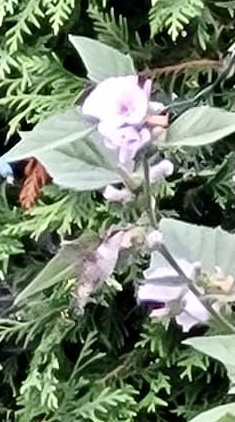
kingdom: Animalia
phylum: Chordata
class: Aves
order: Apodiformes
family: Trochilidae
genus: Archilochus
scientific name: Archilochus colubris
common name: Ruby-throated hummingbird
